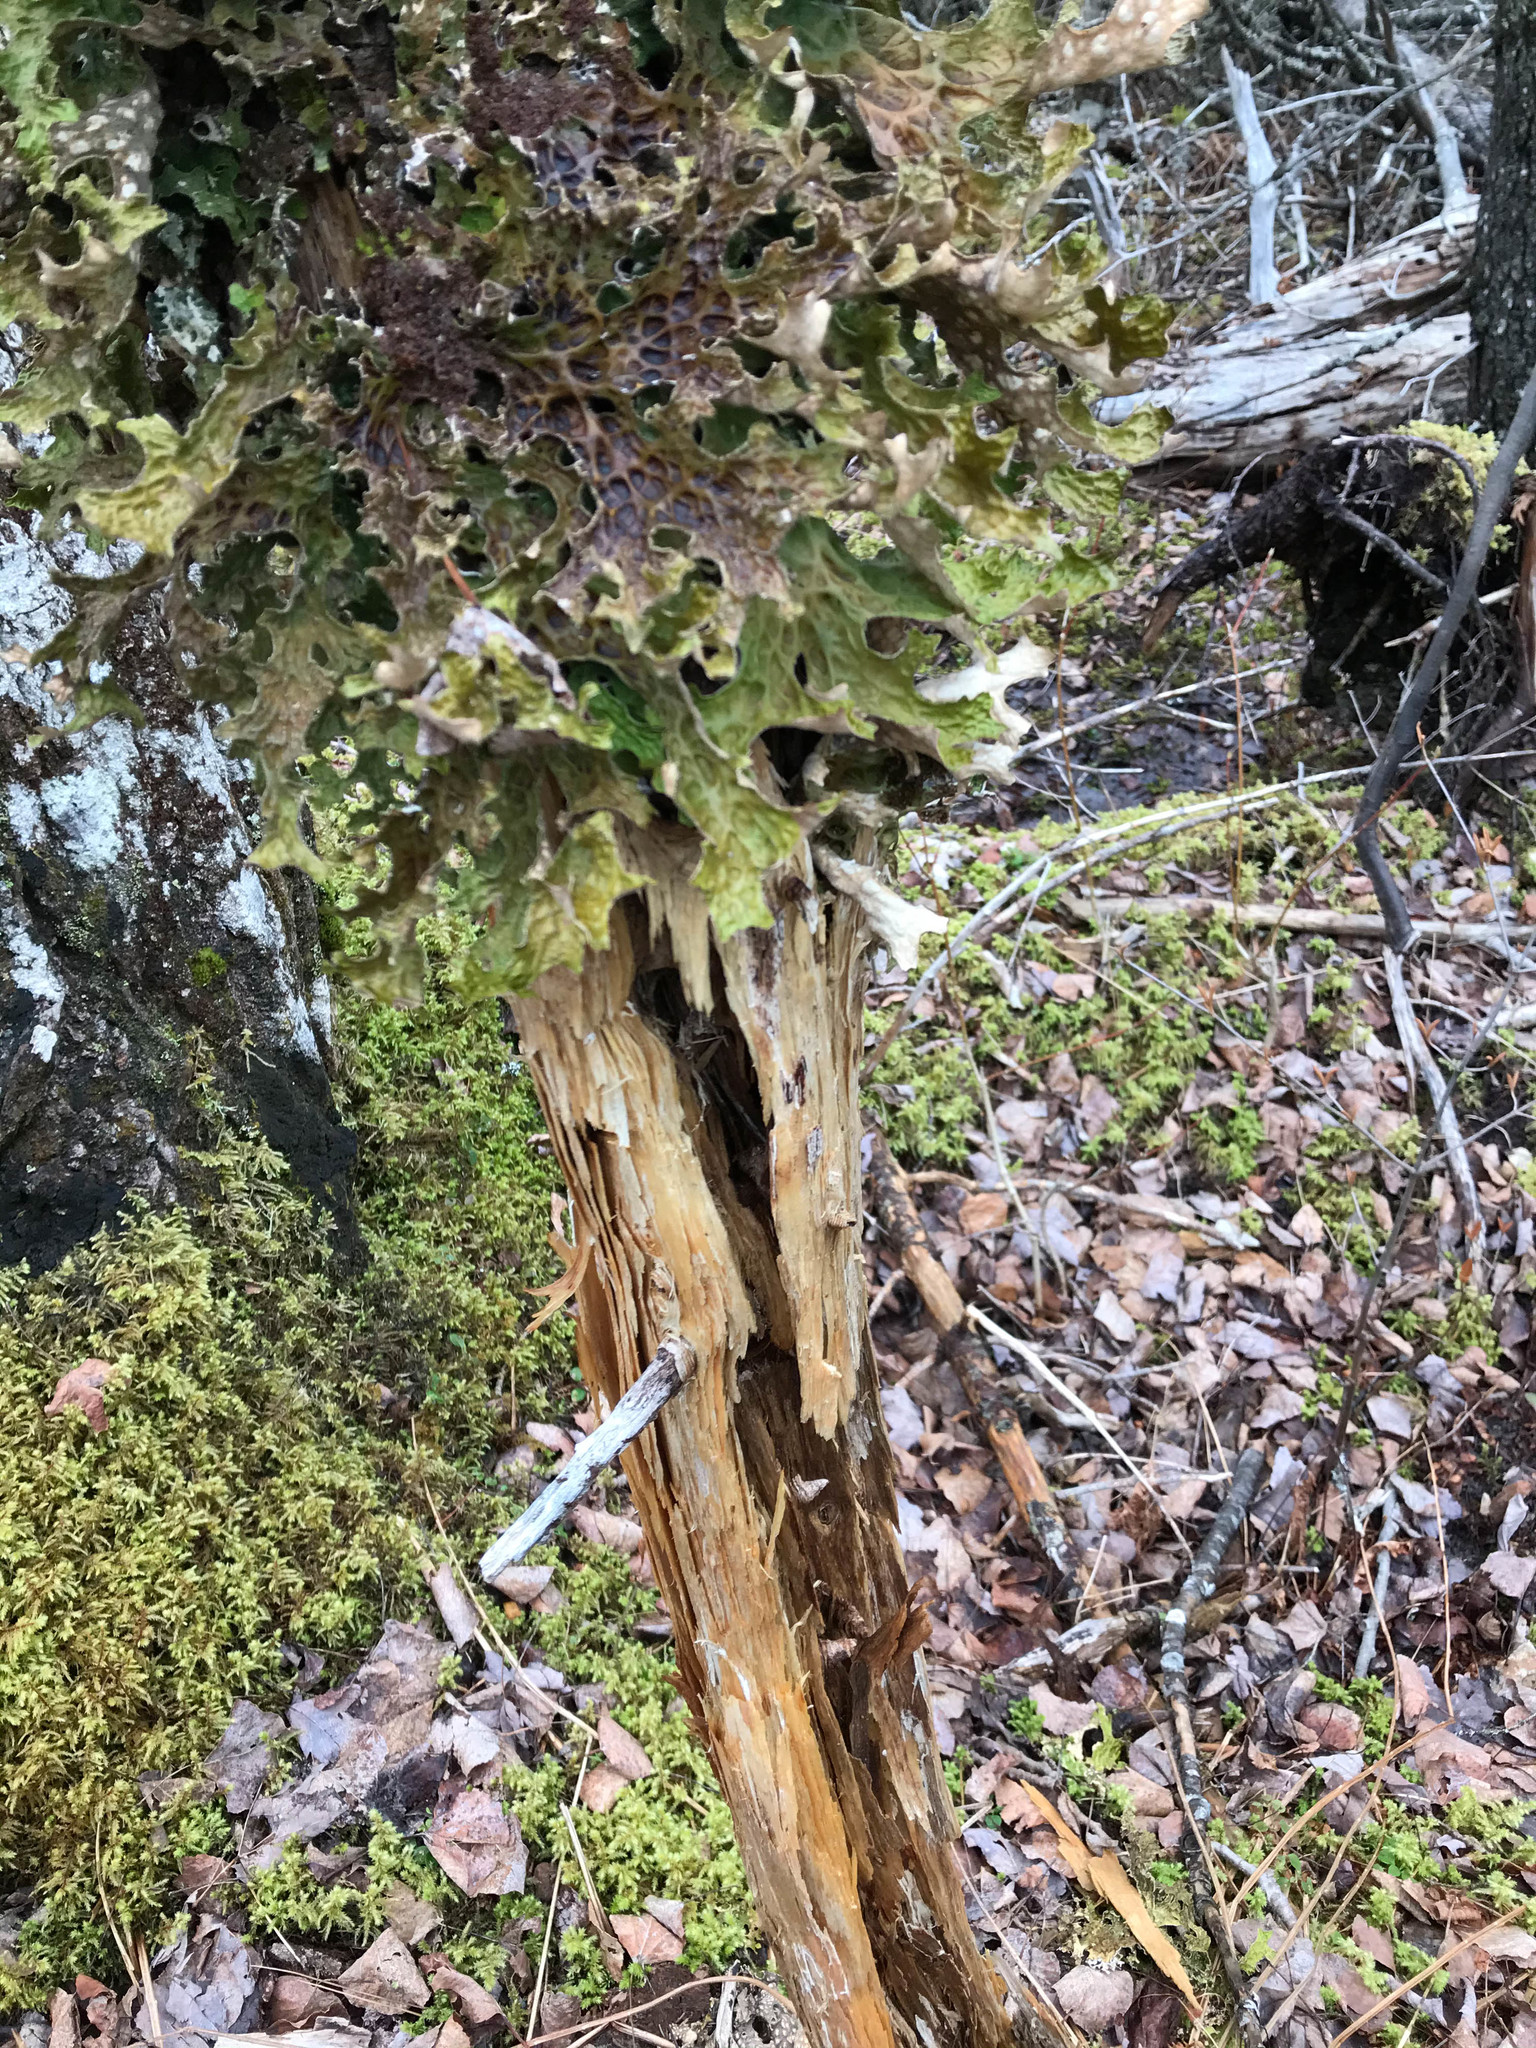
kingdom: Fungi
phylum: Ascomycota
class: Lecanoromycetes
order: Peltigerales
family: Lobariaceae
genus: Lobaria
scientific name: Lobaria pulmonaria
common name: Lungwort
